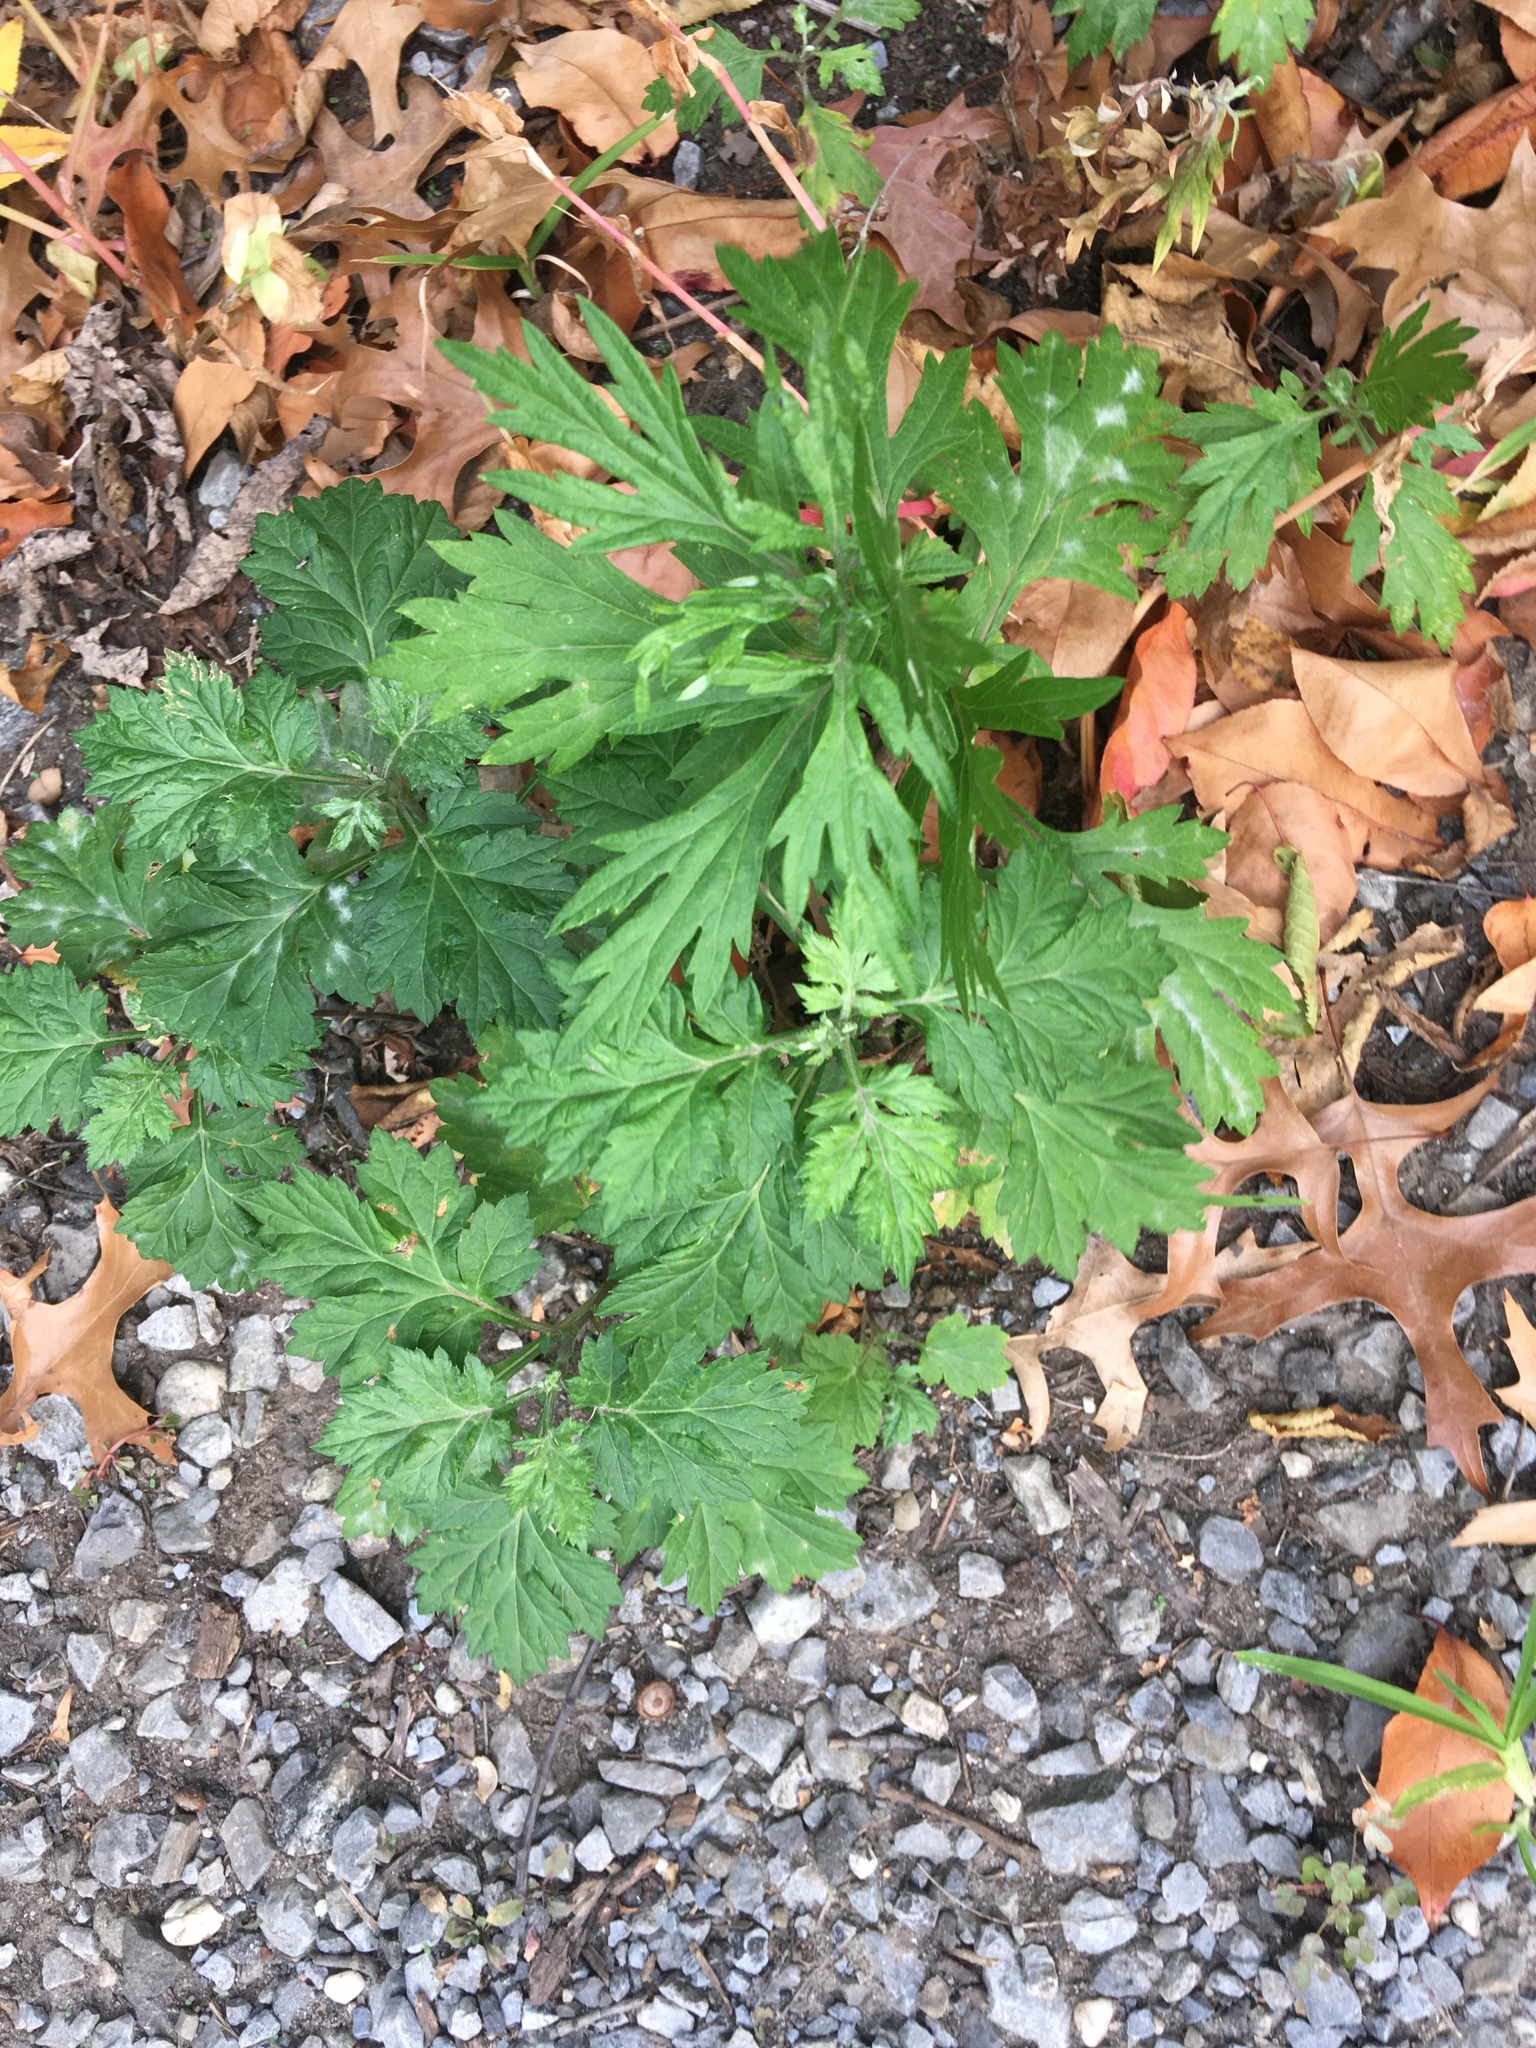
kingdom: Plantae
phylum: Tracheophyta
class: Magnoliopsida
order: Asterales
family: Asteraceae
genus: Artemisia
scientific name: Artemisia vulgaris
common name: Mugwort
